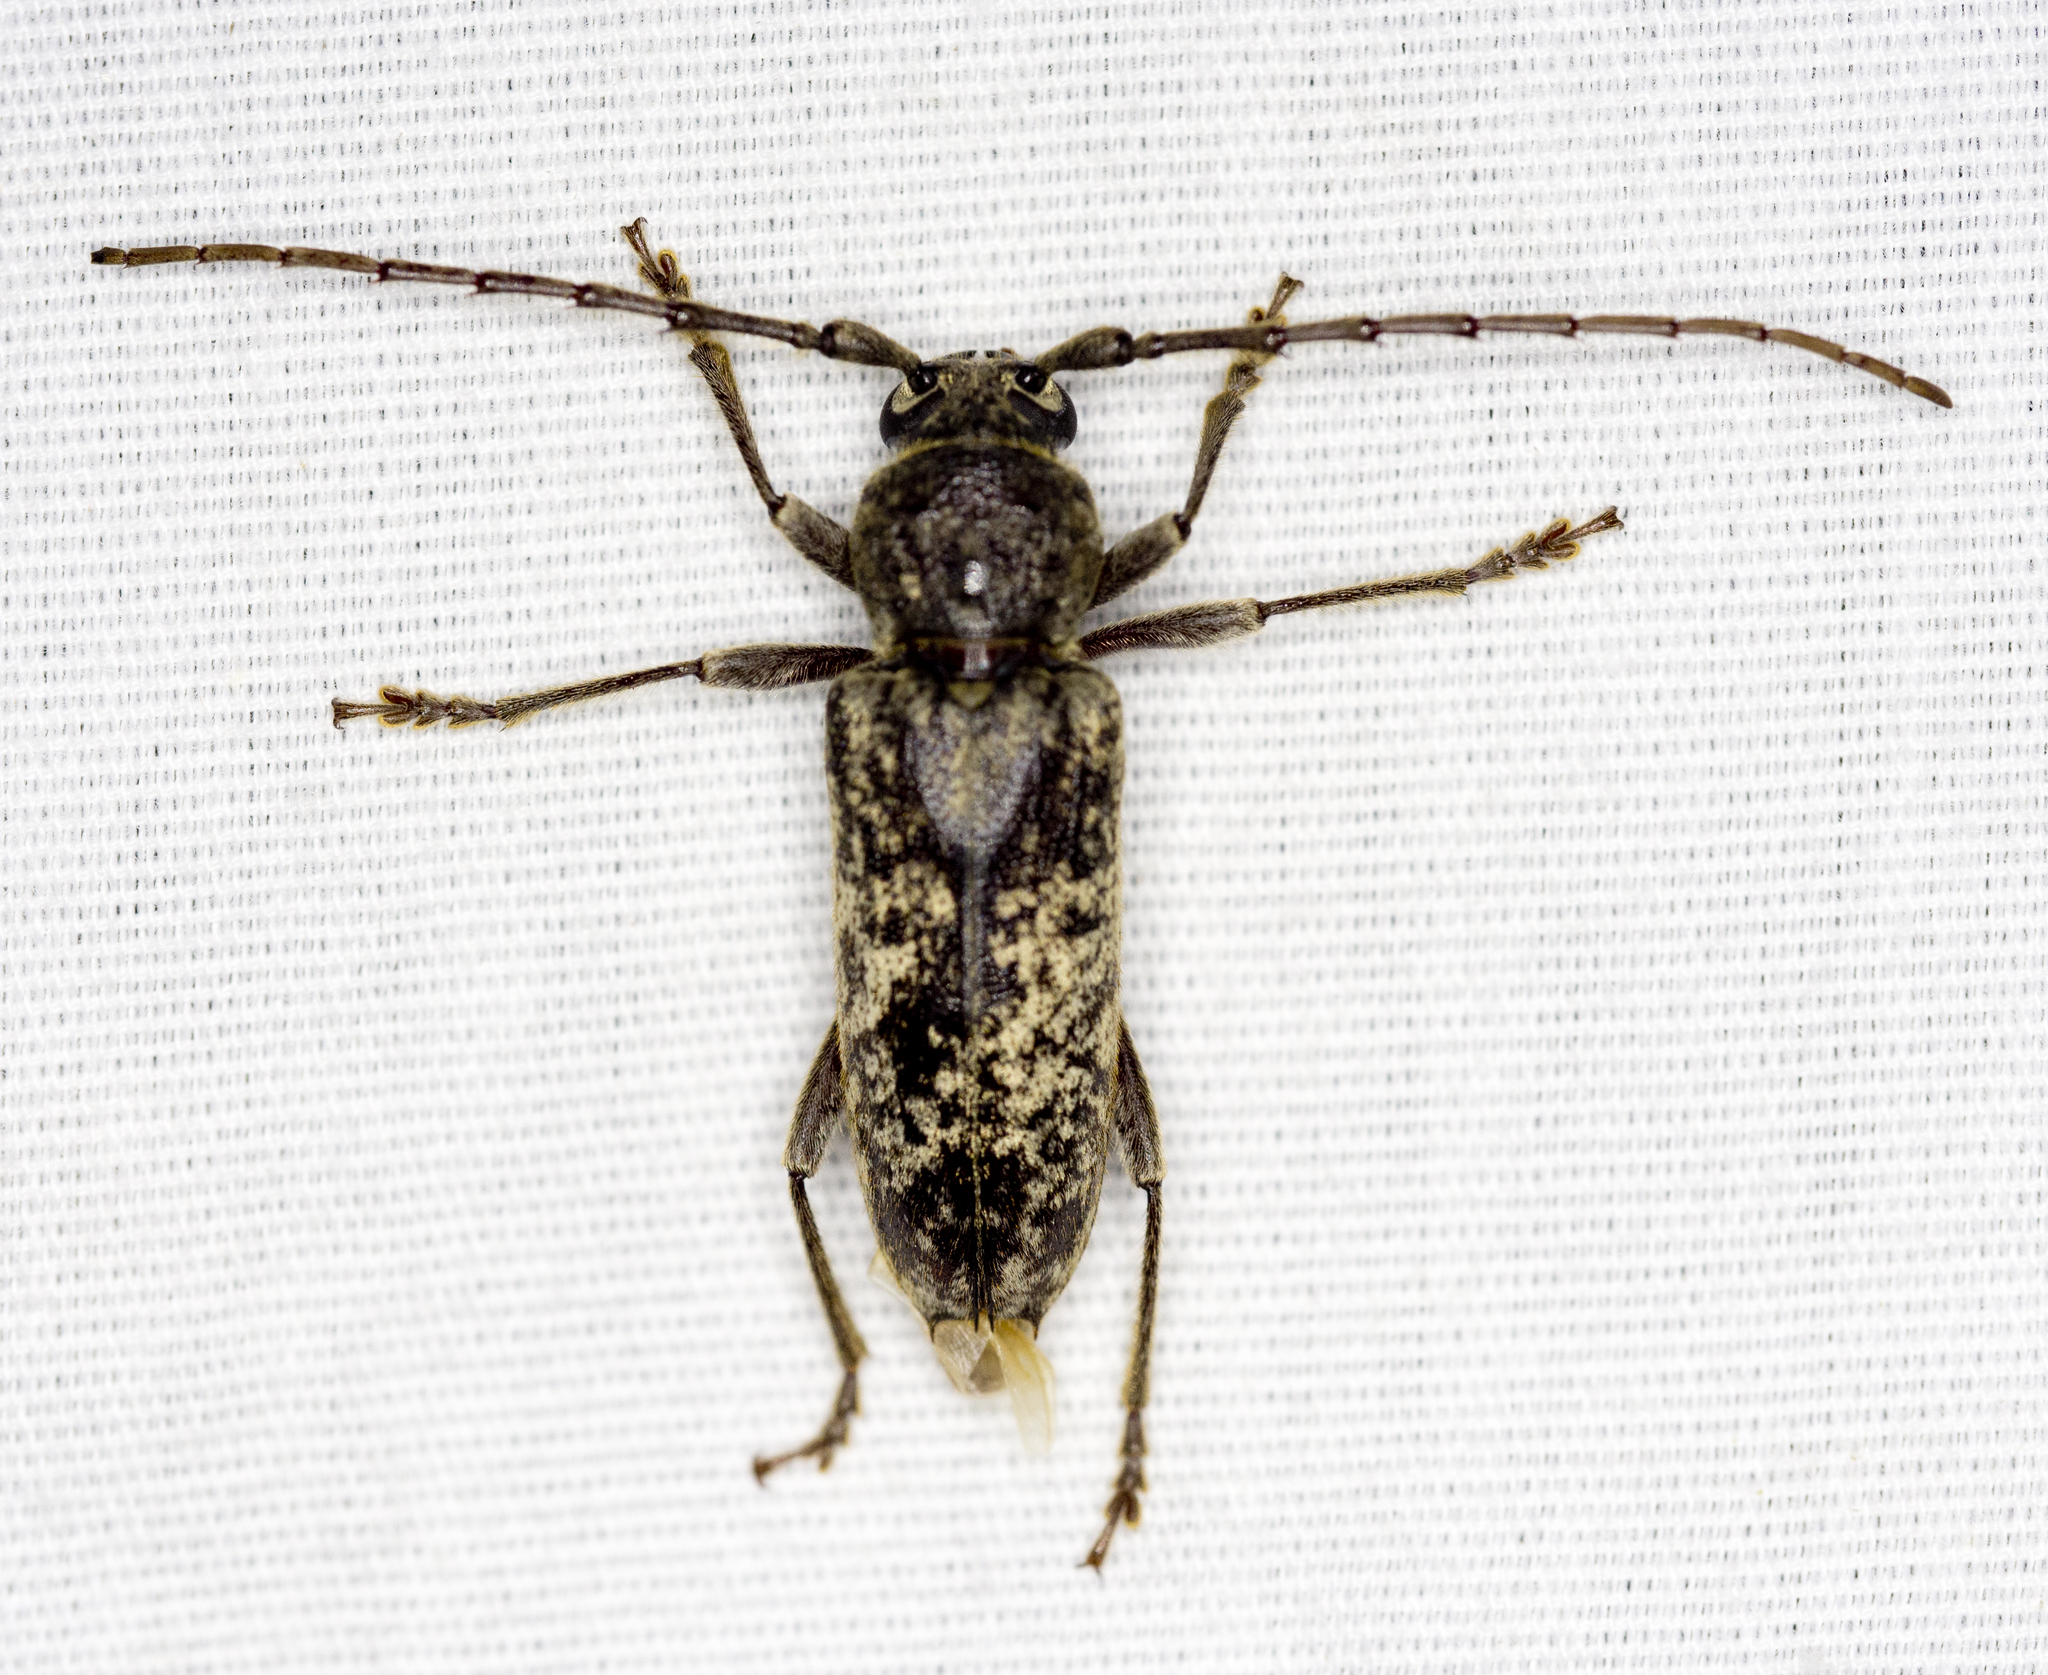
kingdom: Animalia
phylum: Arthropoda
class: Insecta
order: Coleoptera
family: Cerambycidae
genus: Enaphalodes
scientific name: Enaphalodes atomarius
